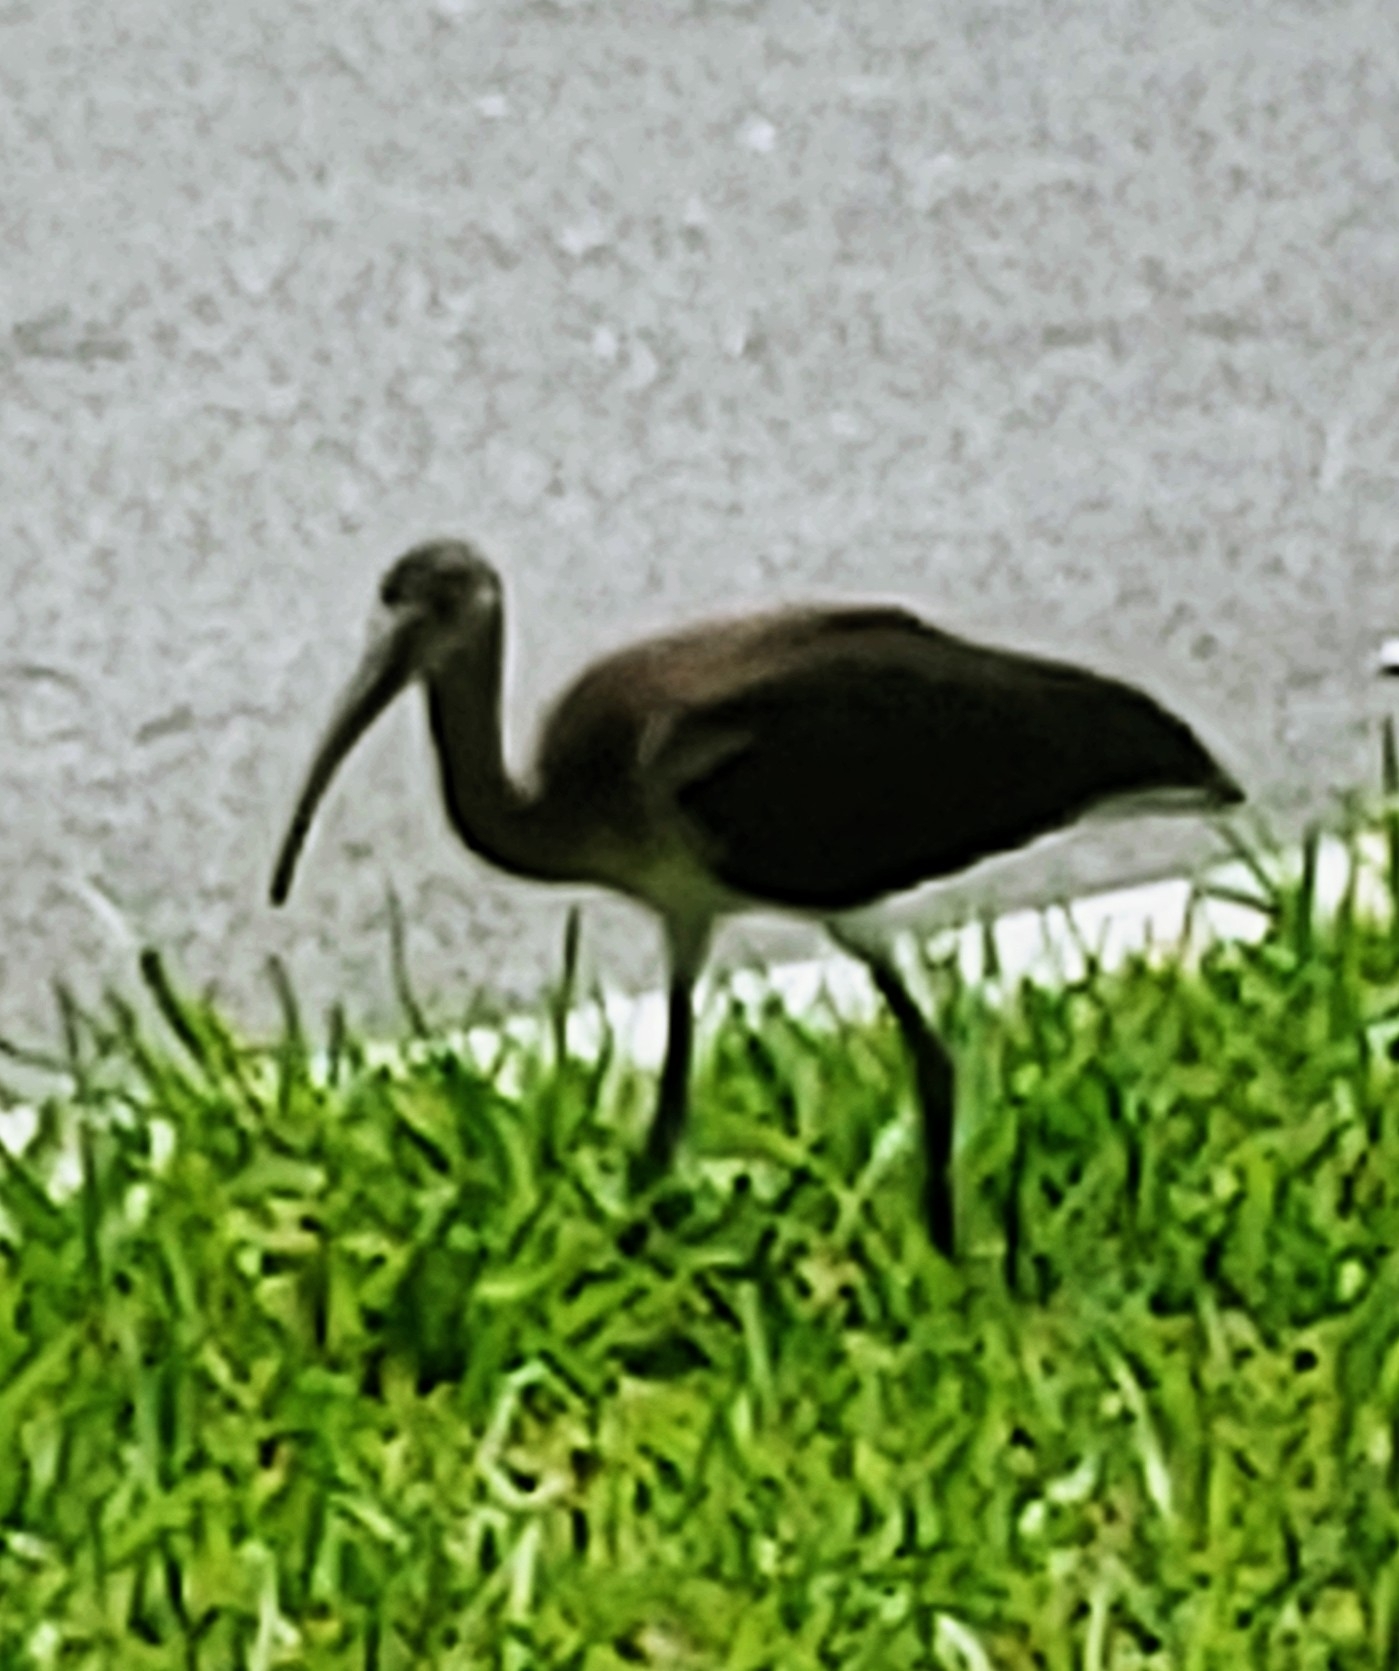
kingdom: Animalia
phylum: Chordata
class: Aves
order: Pelecaniformes
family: Threskiornithidae
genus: Eudocimus
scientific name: Eudocimus albus
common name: White ibis
